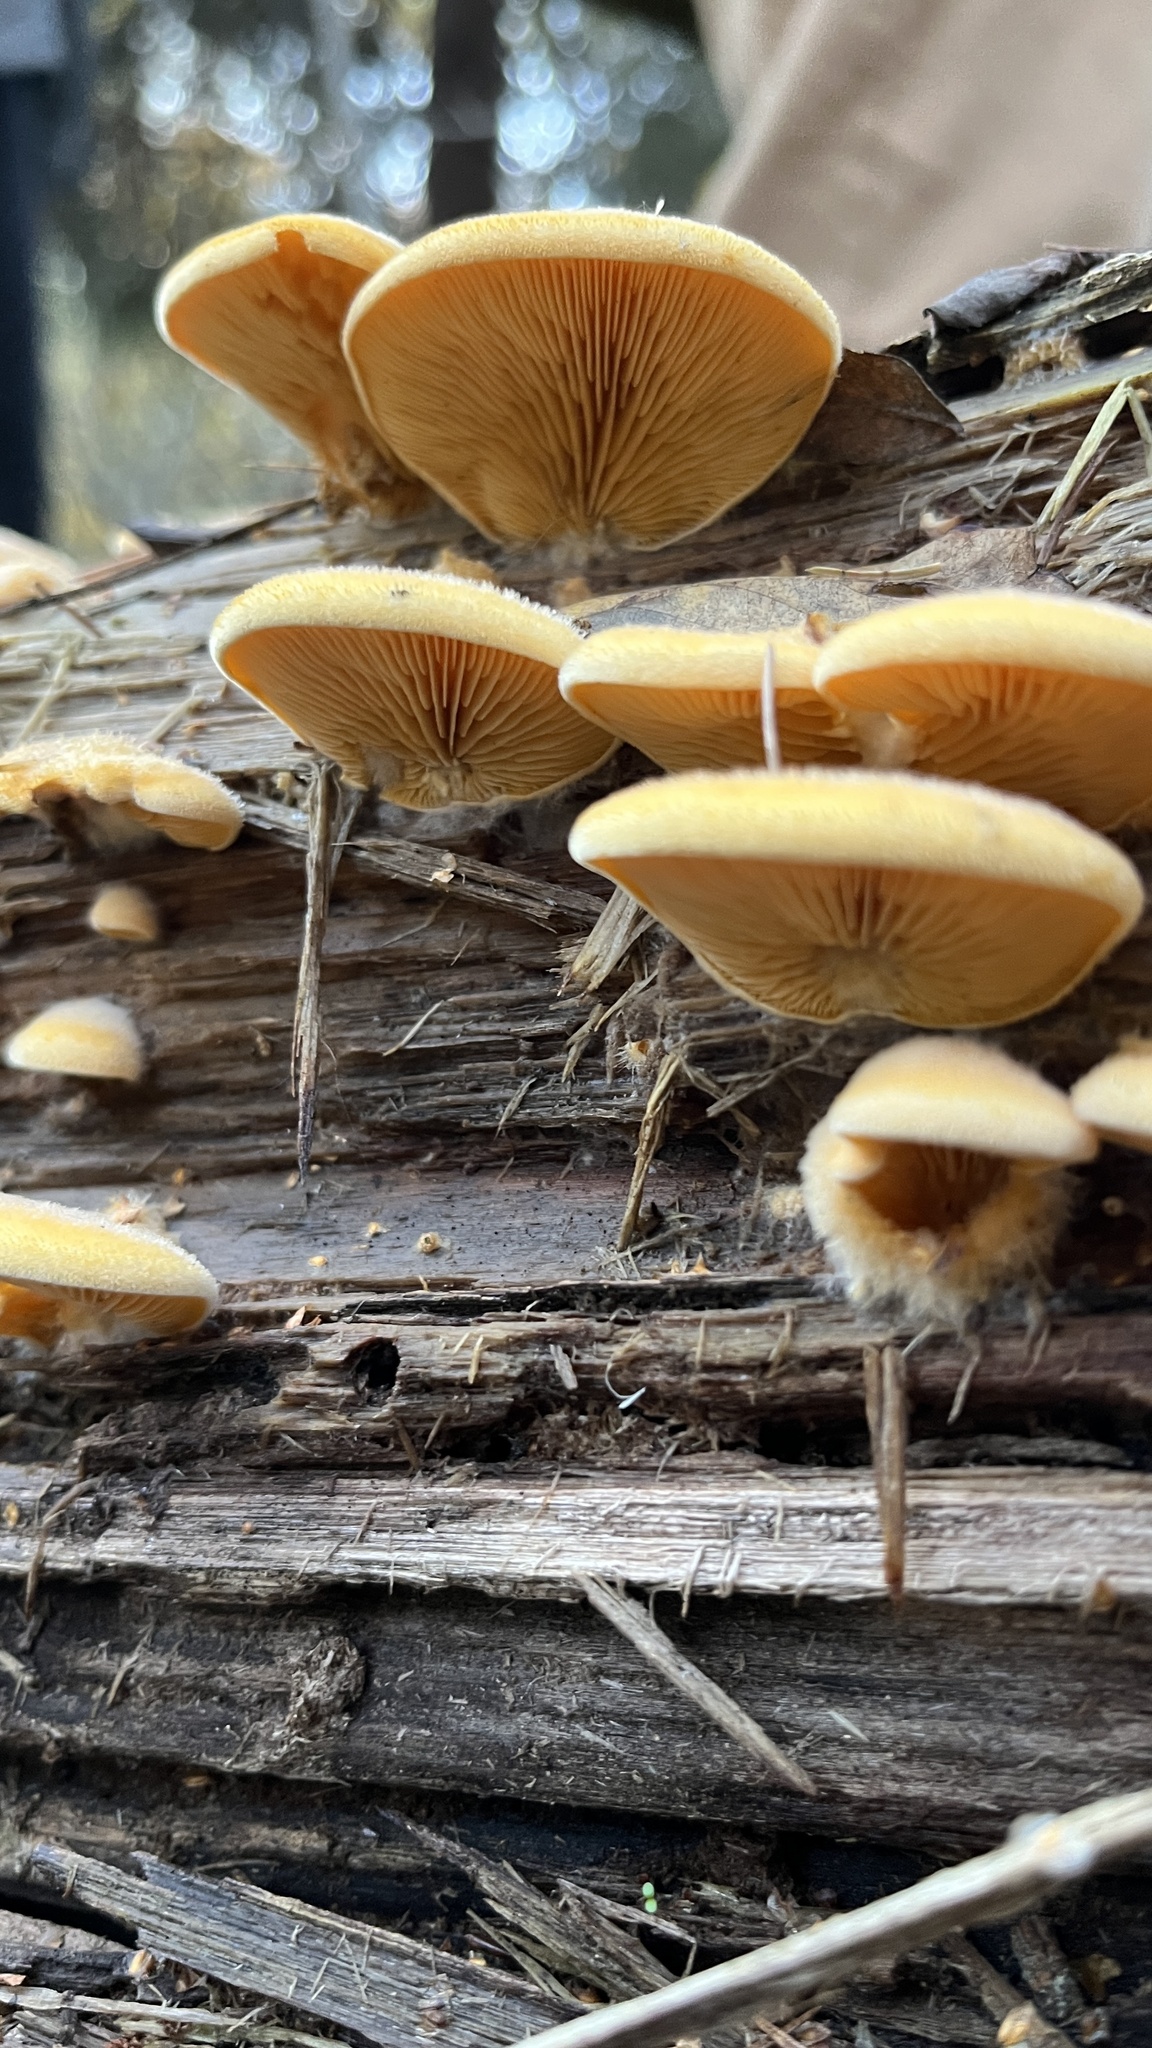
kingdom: Fungi
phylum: Basidiomycota
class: Agaricomycetes
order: Agaricales
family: Phyllotopsidaceae
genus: Phyllotopsis
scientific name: Phyllotopsis nidulans
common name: Orange mock oyster
